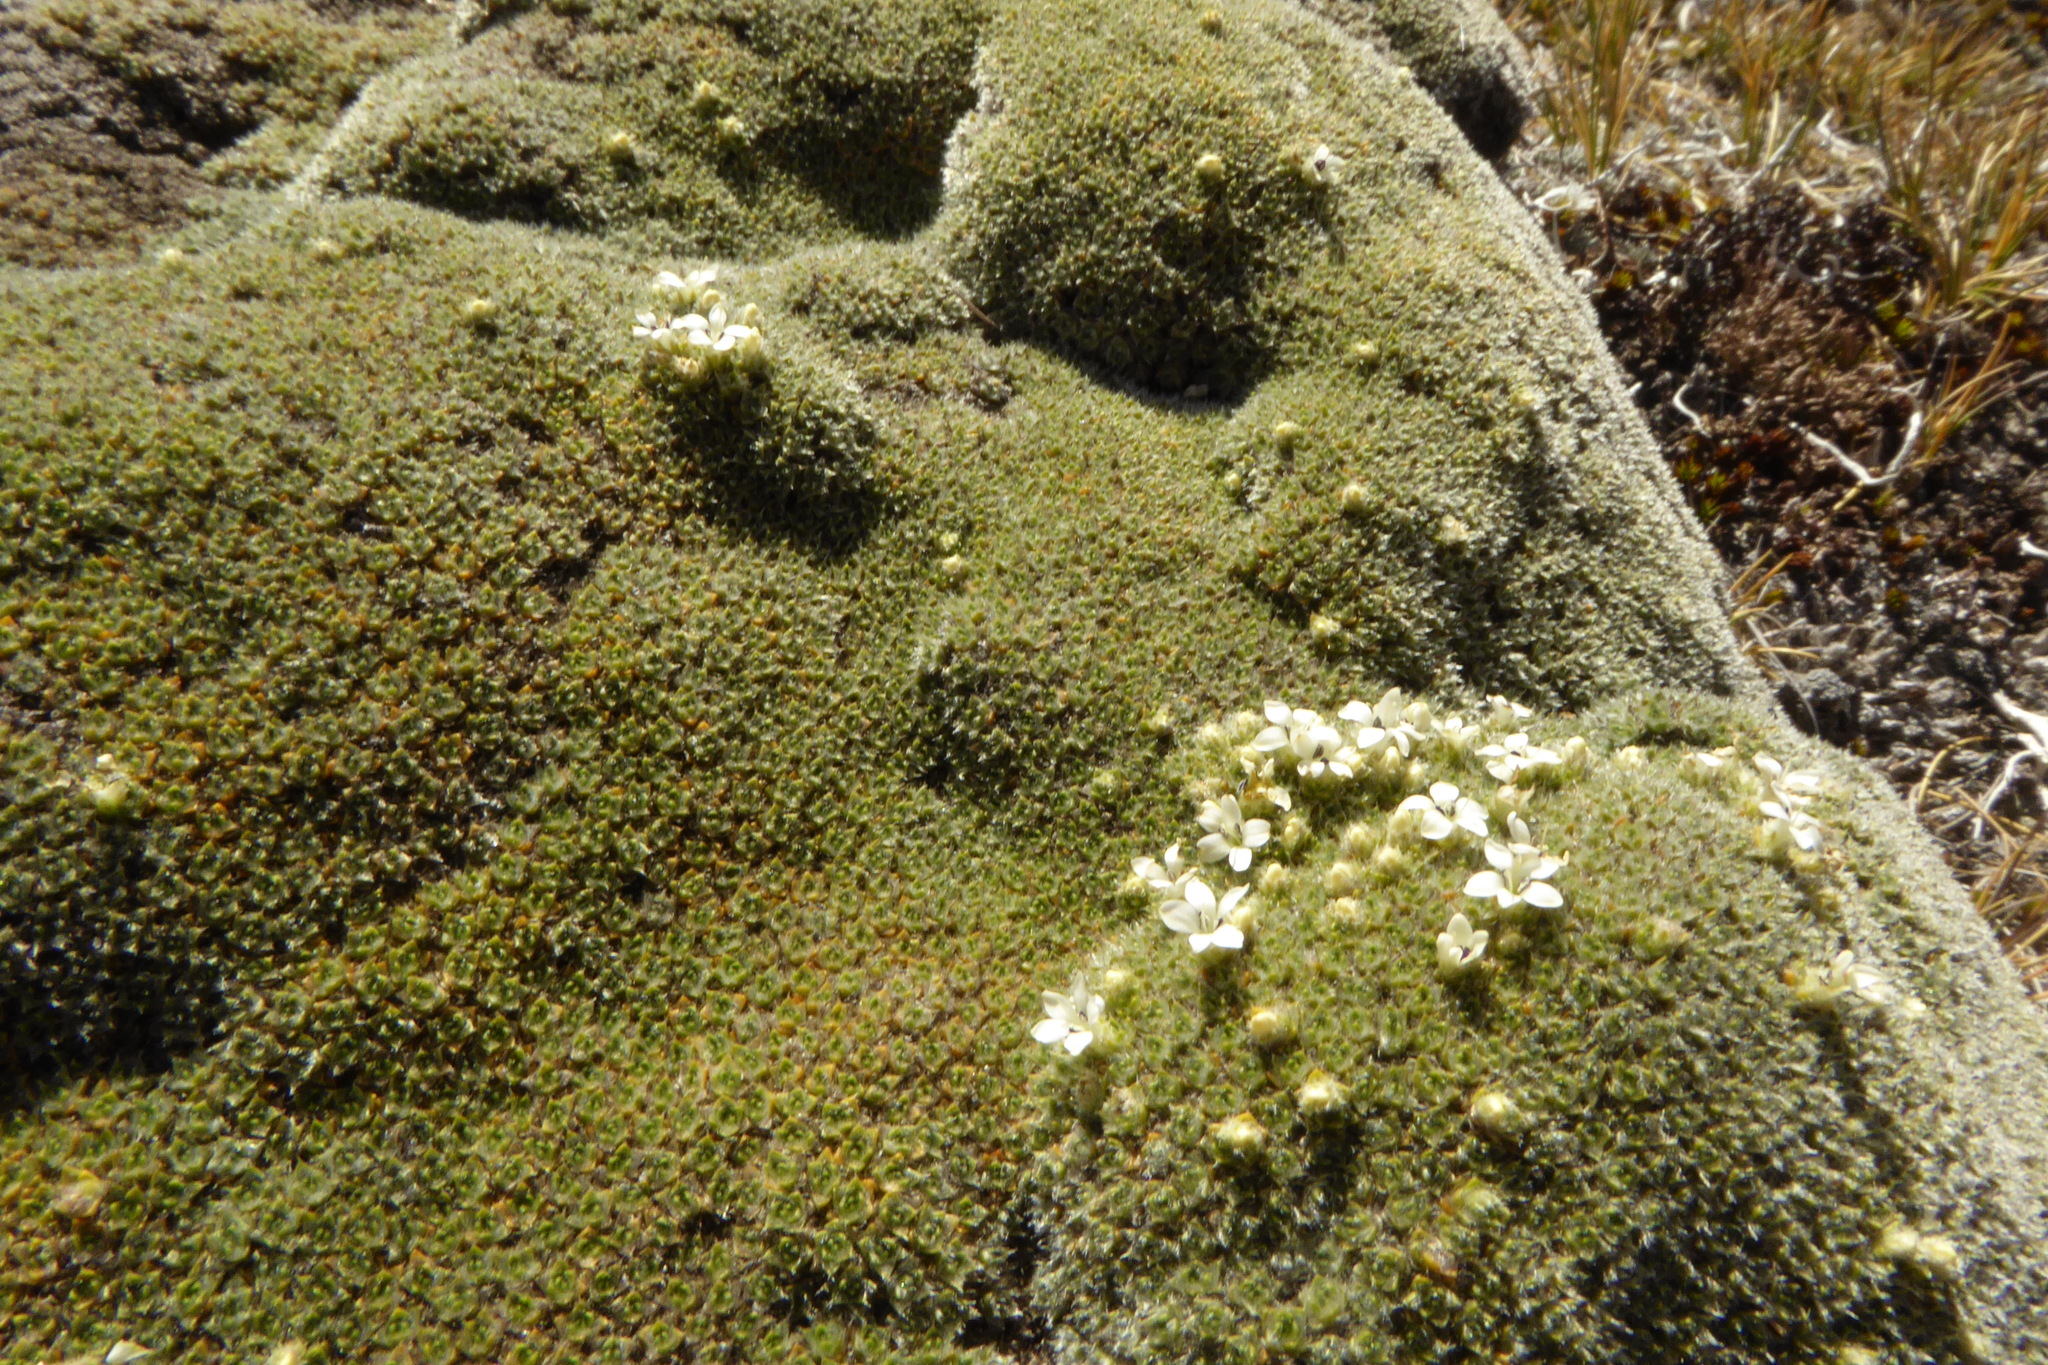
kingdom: Plantae
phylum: Tracheophyta
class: Magnoliopsida
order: Lamiales
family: Plantaginaceae
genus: Veronica
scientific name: Veronica thomsonii
